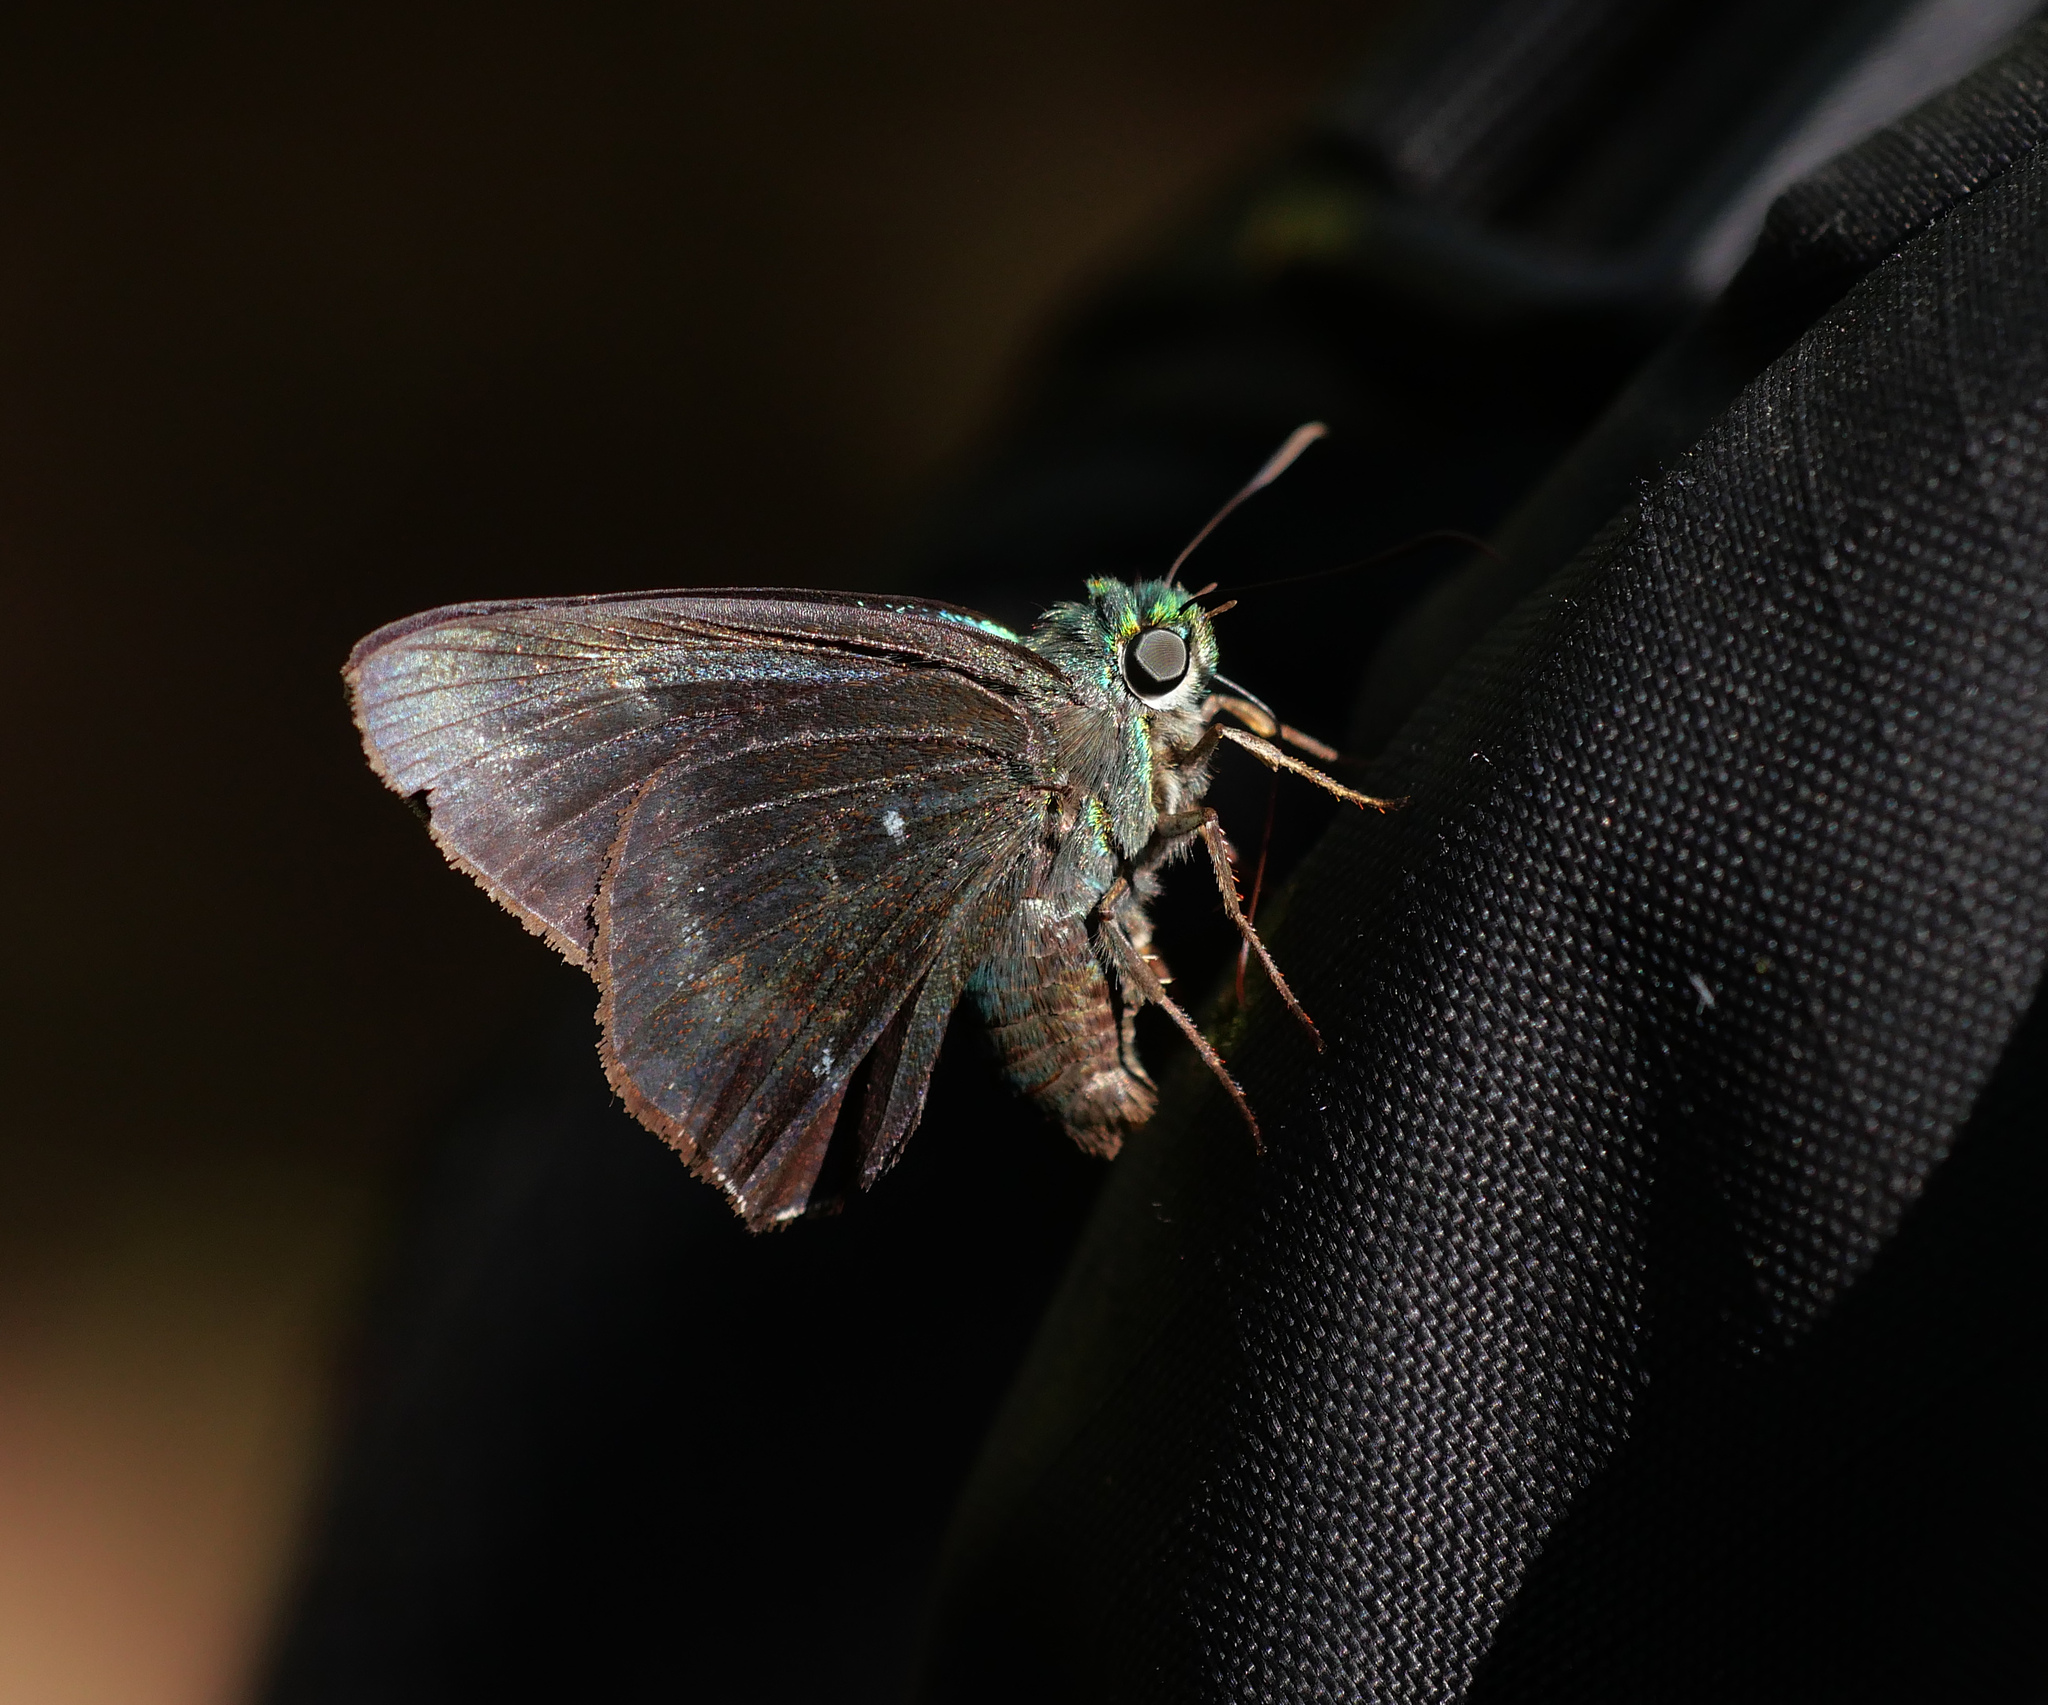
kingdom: Animalia
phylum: Arthropoda
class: Insecta
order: Lepidoptera
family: Hesperiidae
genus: Allora
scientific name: Allora doleschallii
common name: Peacock awl
